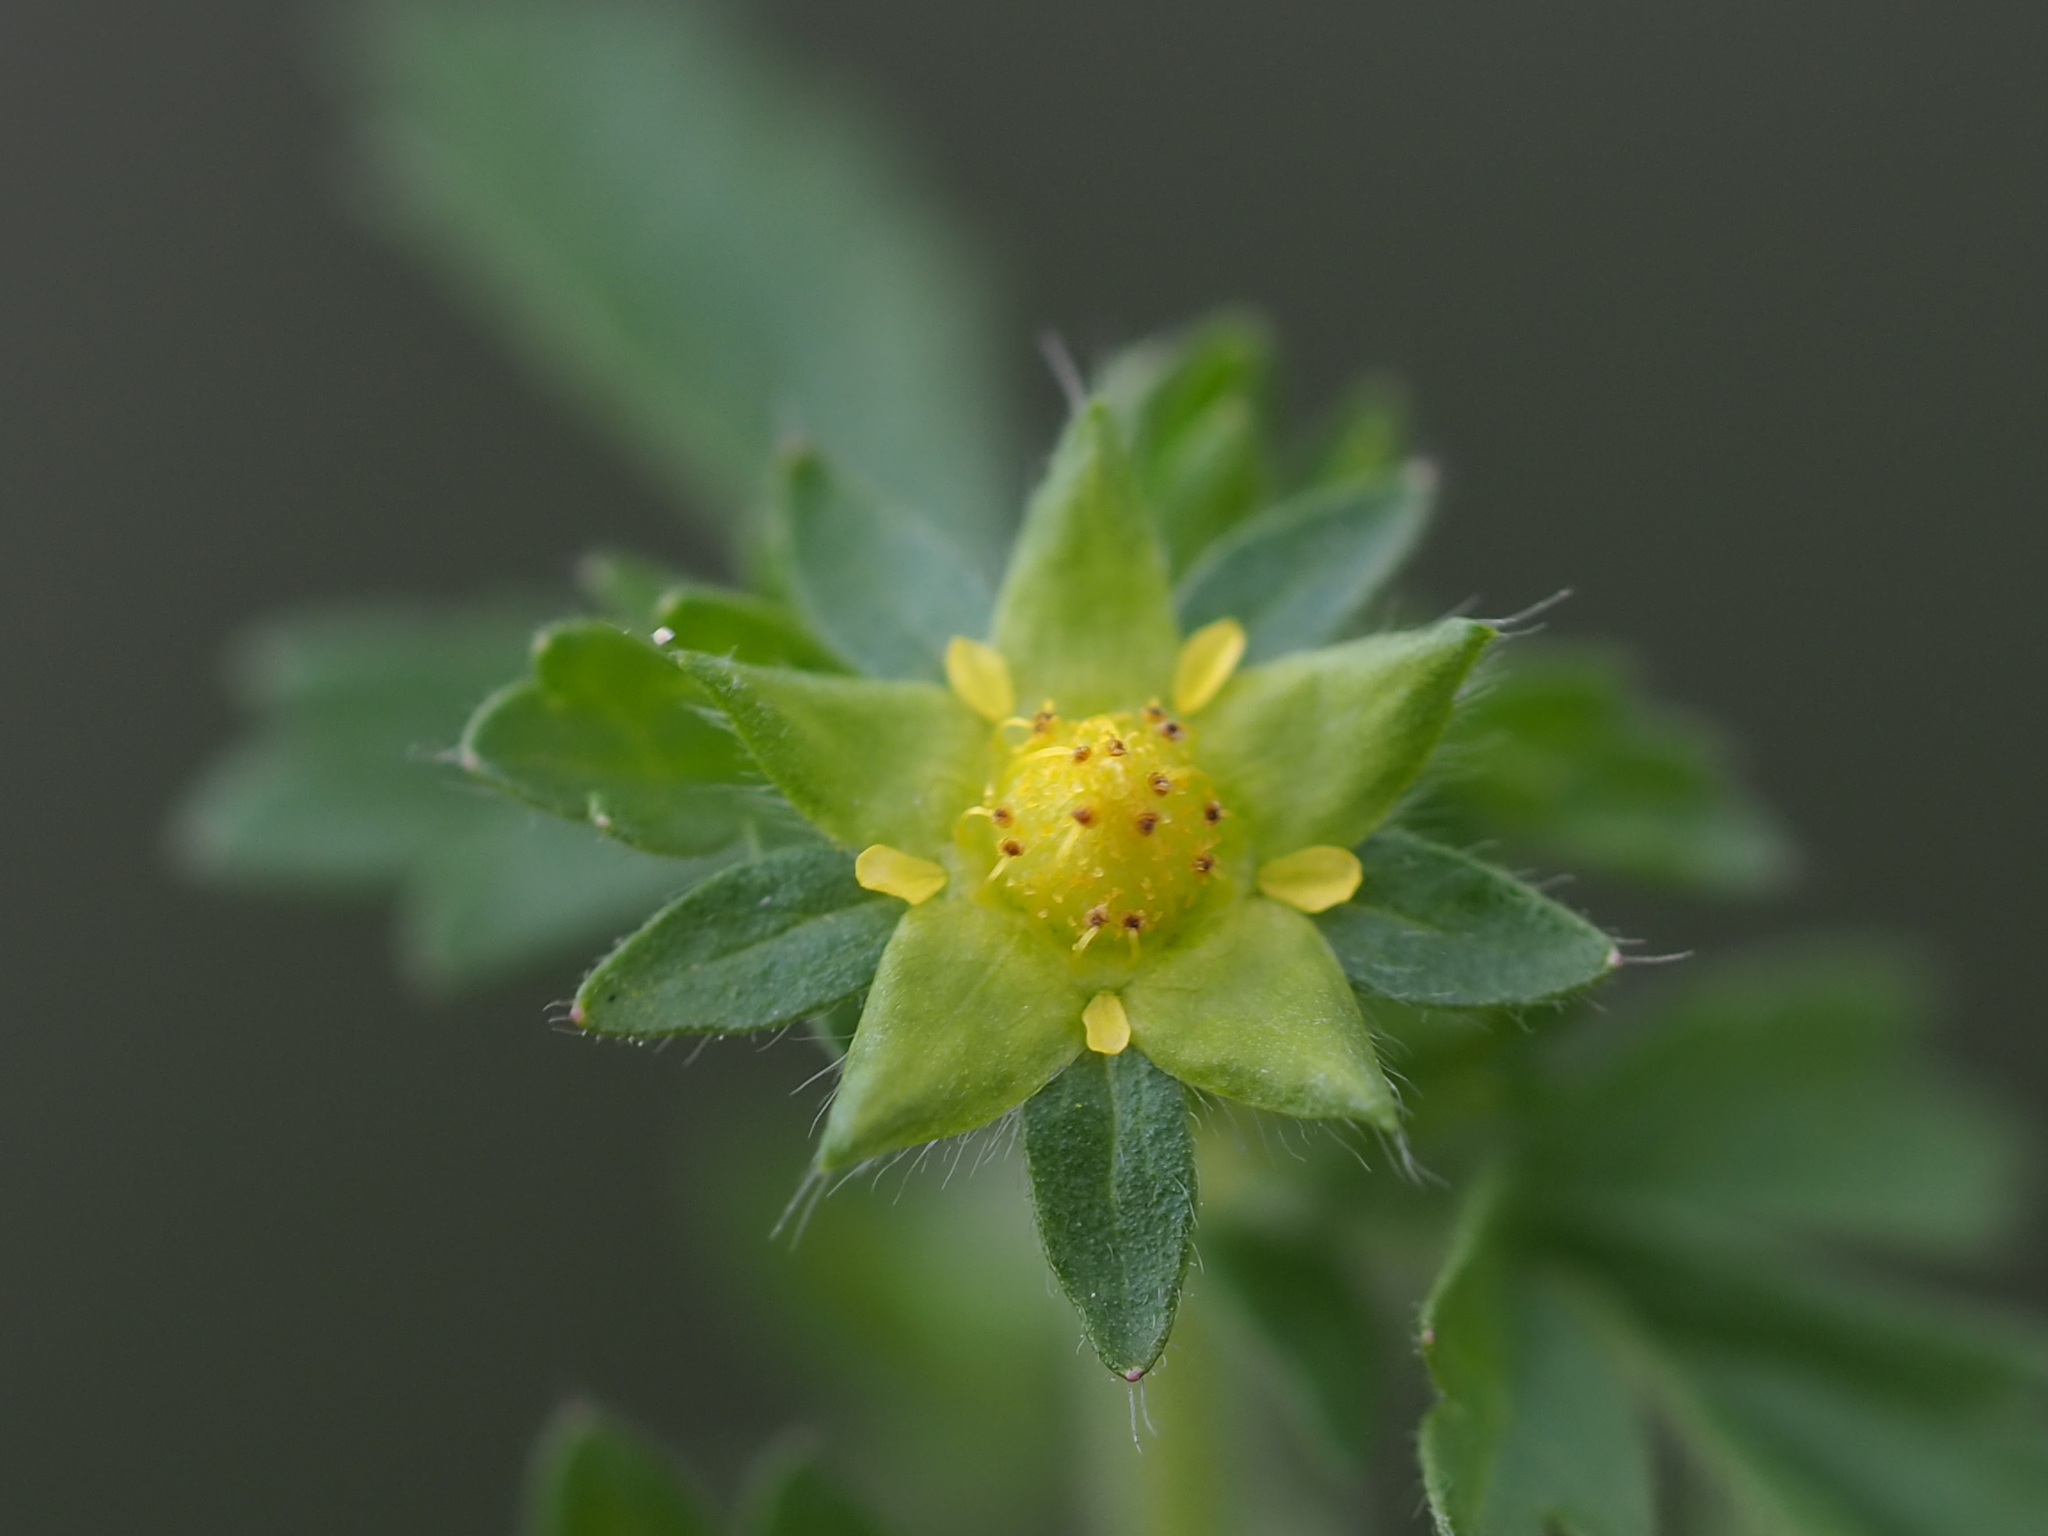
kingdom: Plantae
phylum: Tracheophyta
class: Magnoliopsida
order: Rosales
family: Rosaceae
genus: Potentilla
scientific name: Potentilla heynei
